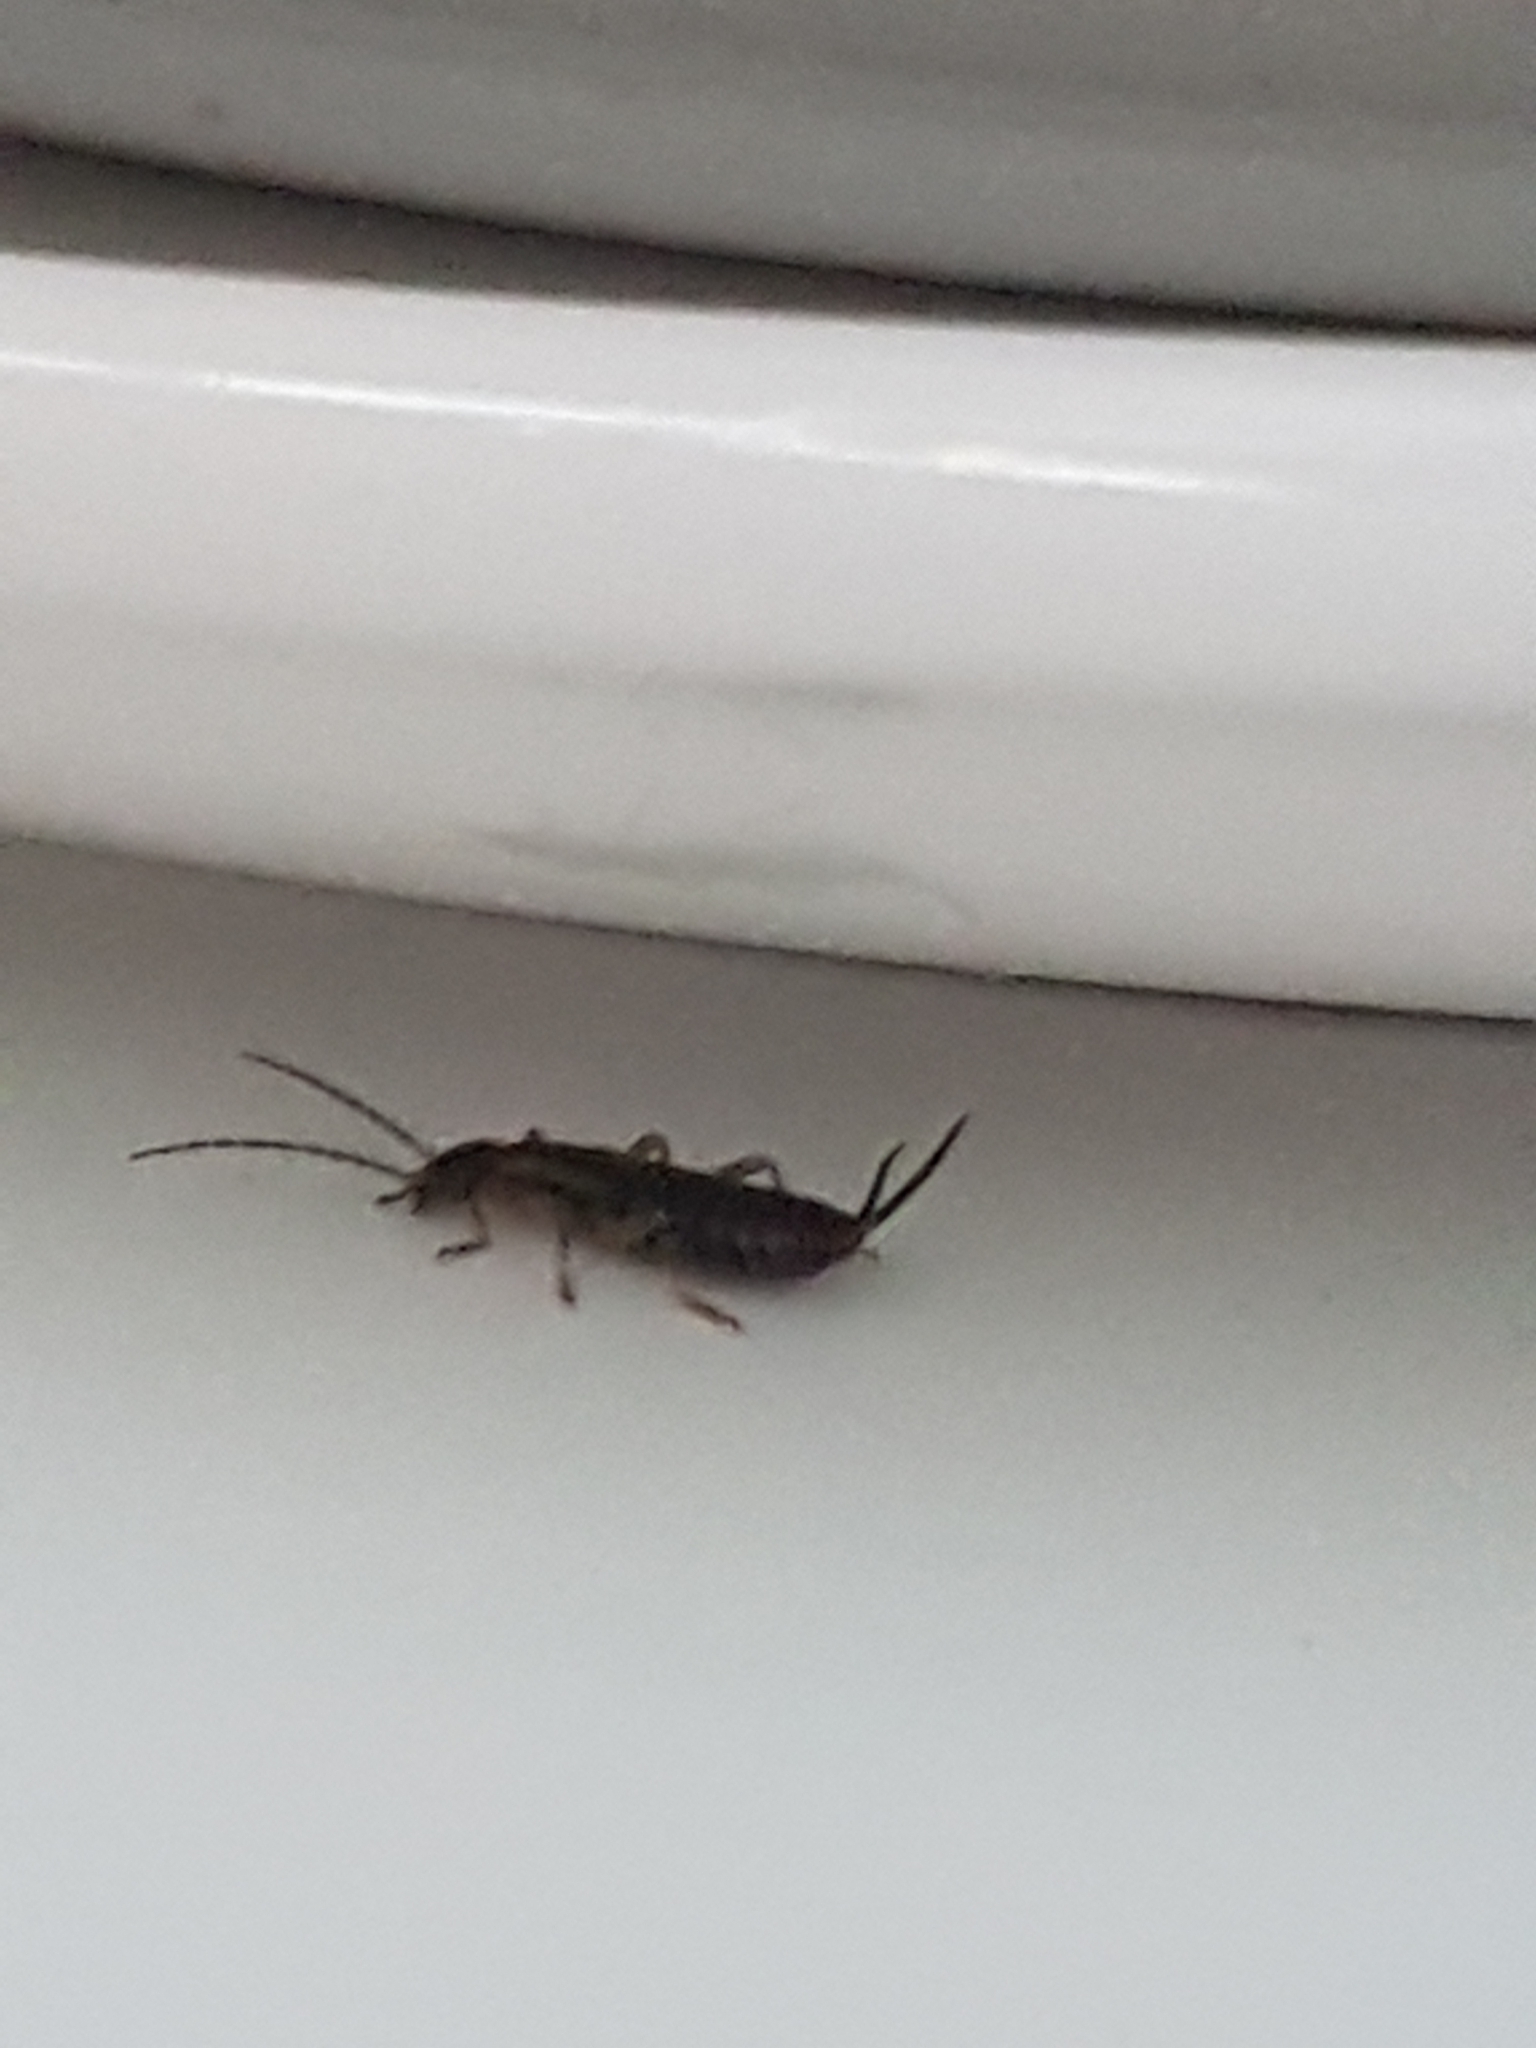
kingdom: Animalia
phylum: Arthropoda
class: Insecta
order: Dermaptera
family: Forficulidae
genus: Forficula
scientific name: Forficula
